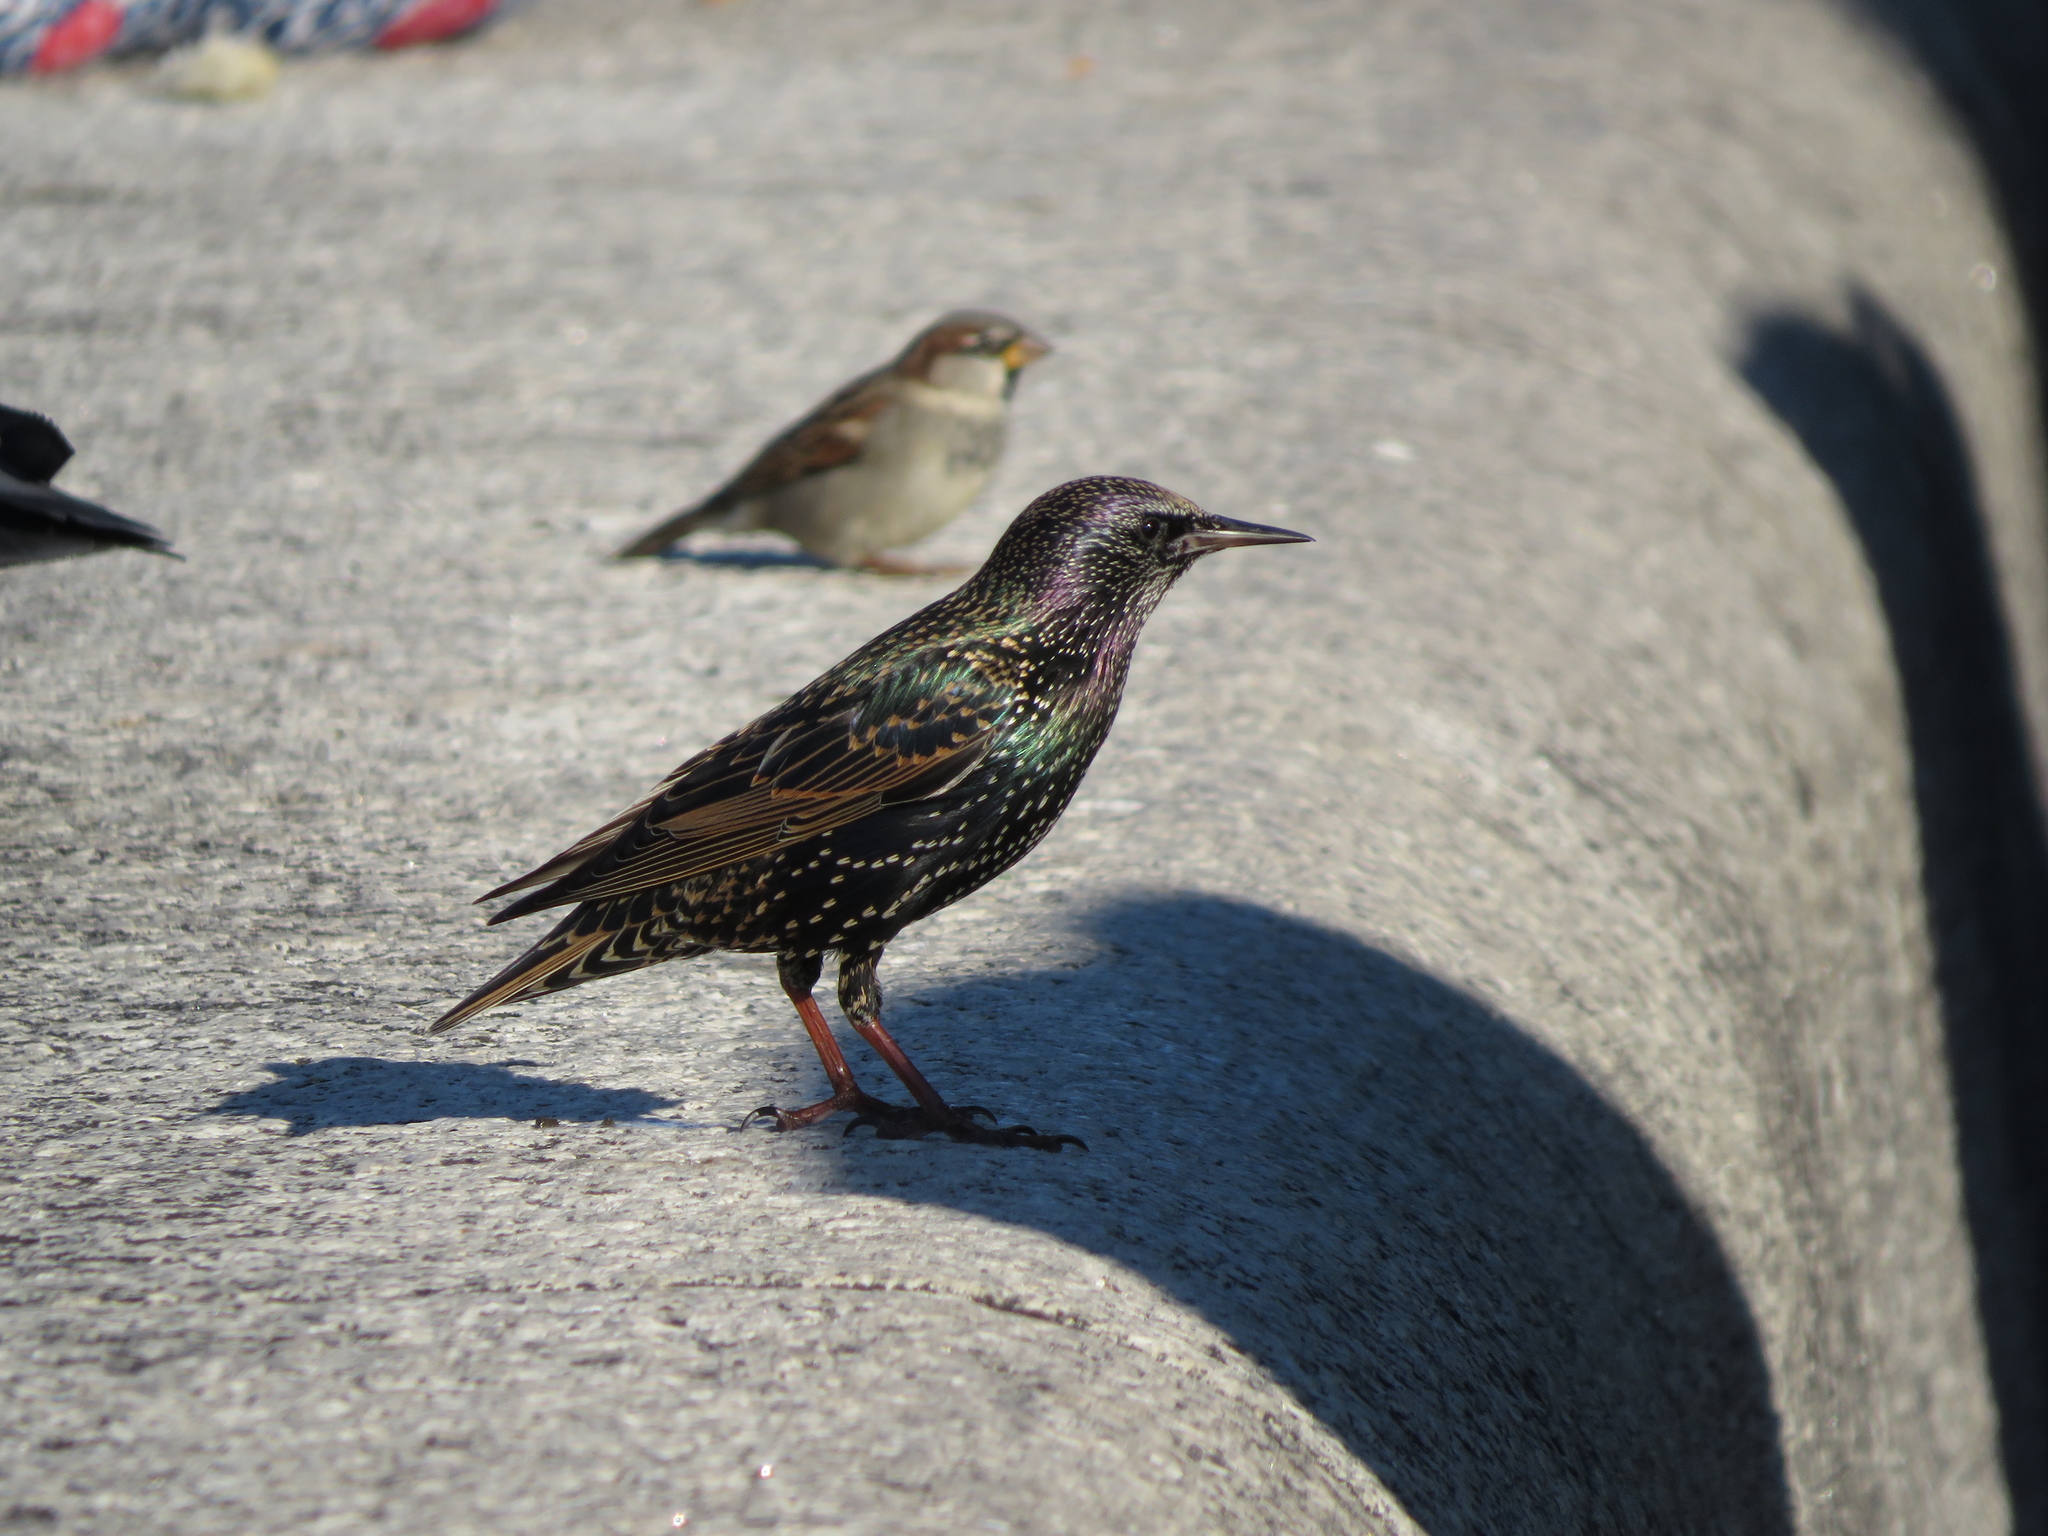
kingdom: Animalia
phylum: Chordata
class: Aves
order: Passeriformes
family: Sturnidae
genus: Sturnus
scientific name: Sturnus vulgaris
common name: Common starling
